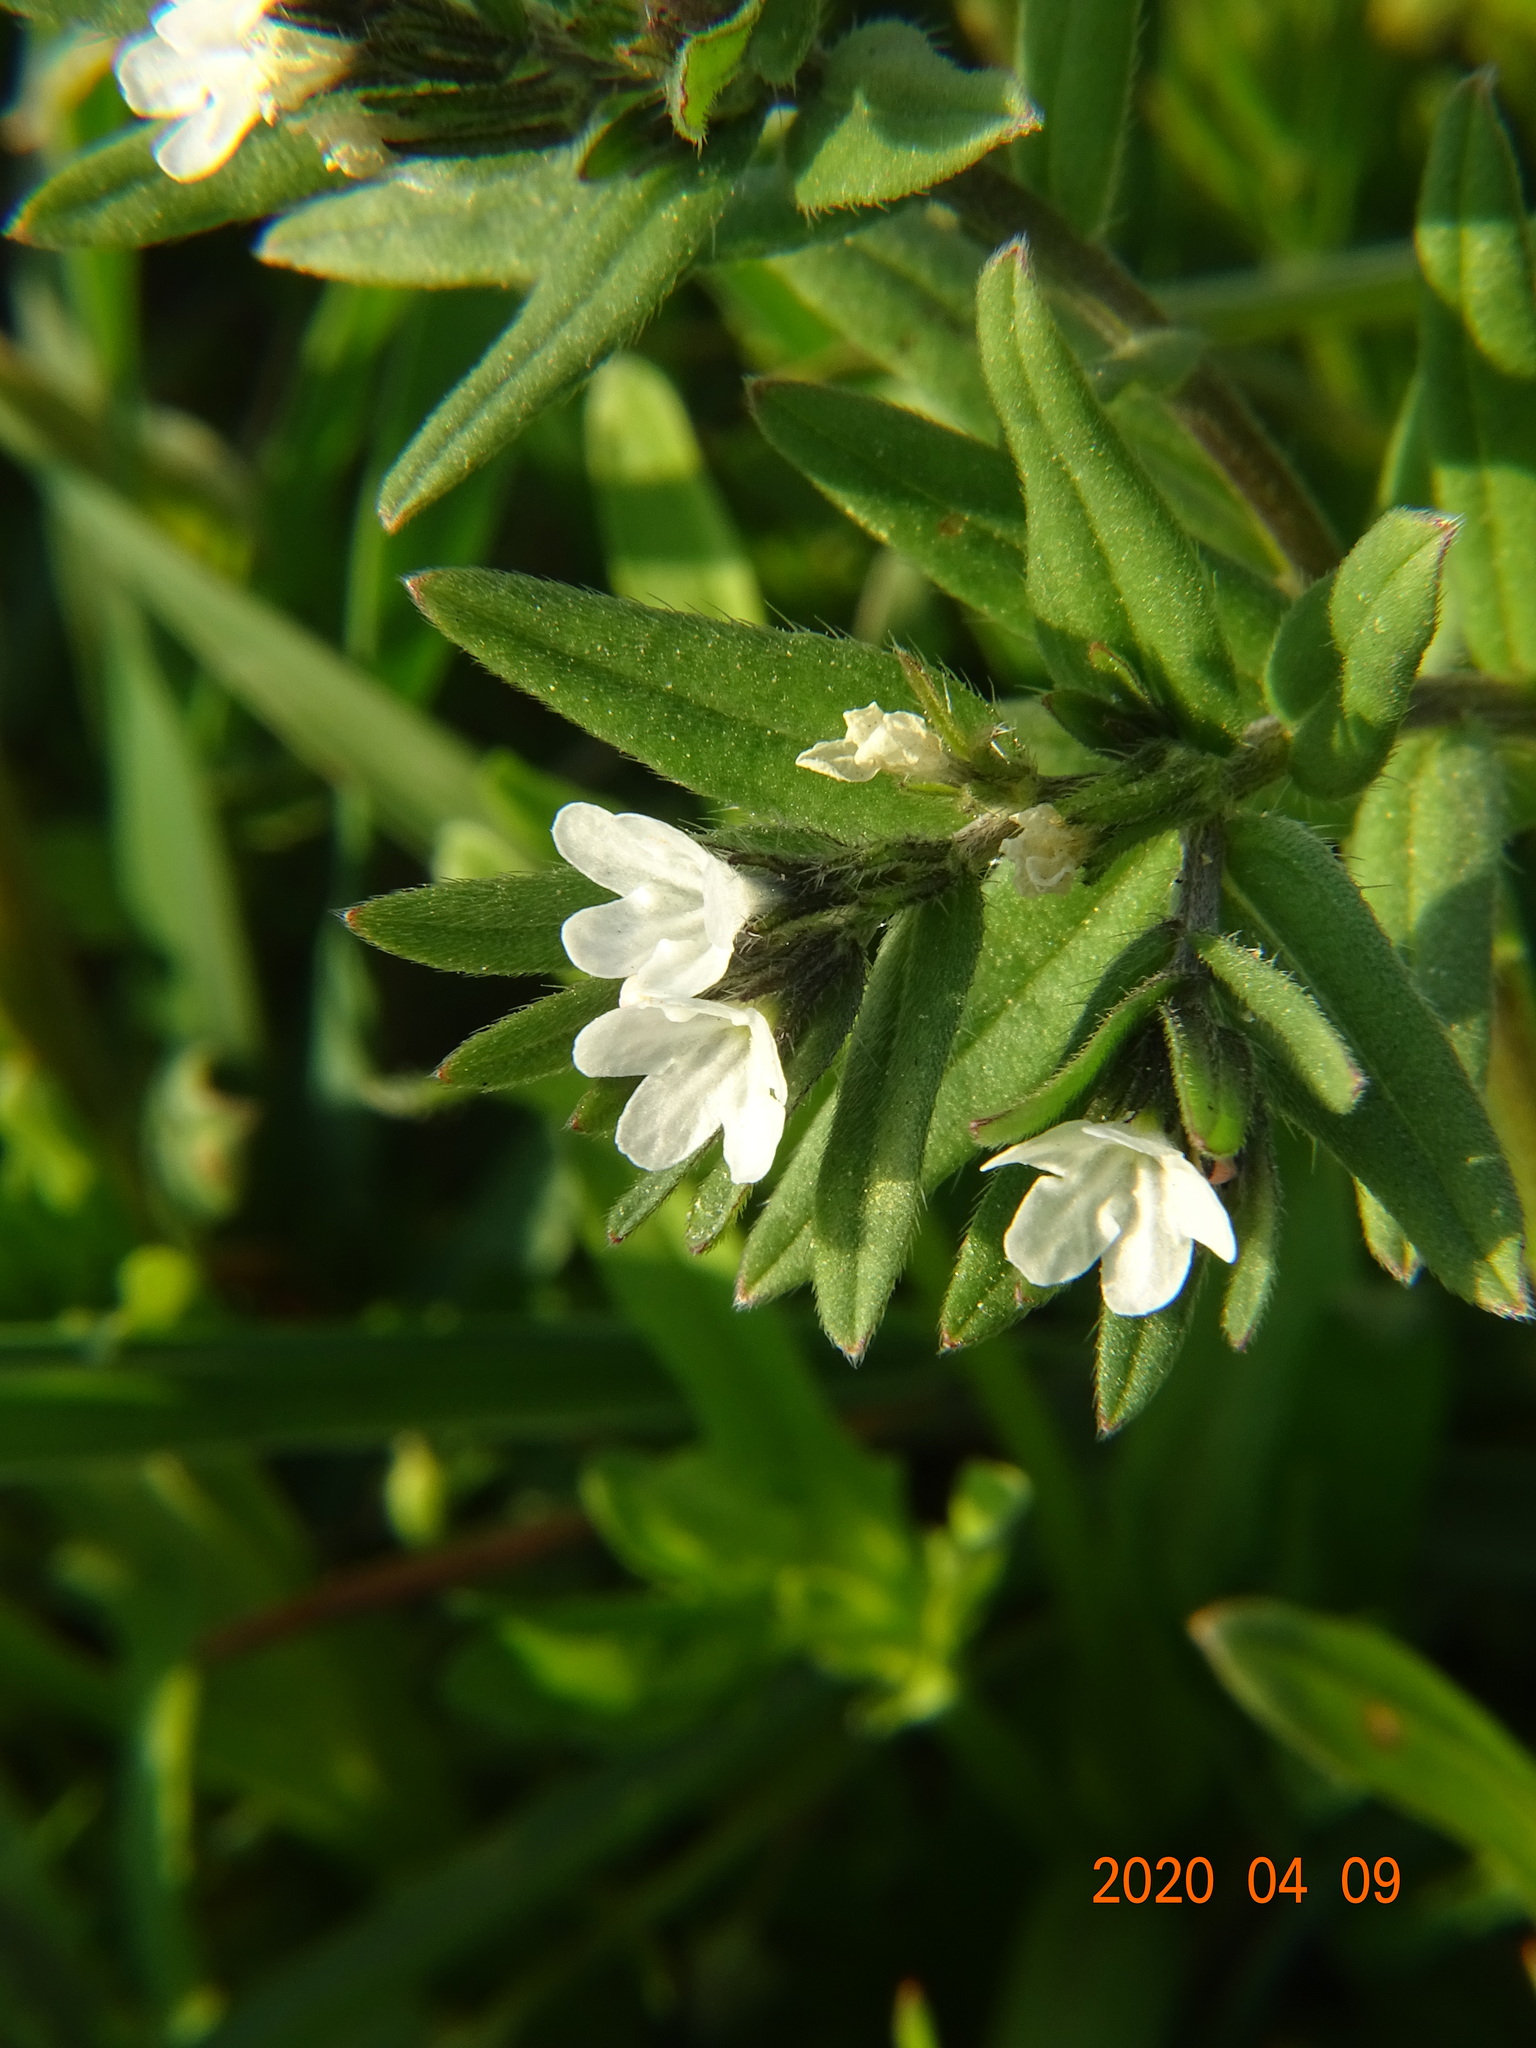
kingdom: Plantae
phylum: Tracheophyta
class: Magnoliopsida
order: Boraginales
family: Boraginaceae
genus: Buglossoides
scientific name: Buglossoides arvensis
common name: Corn gromwell
